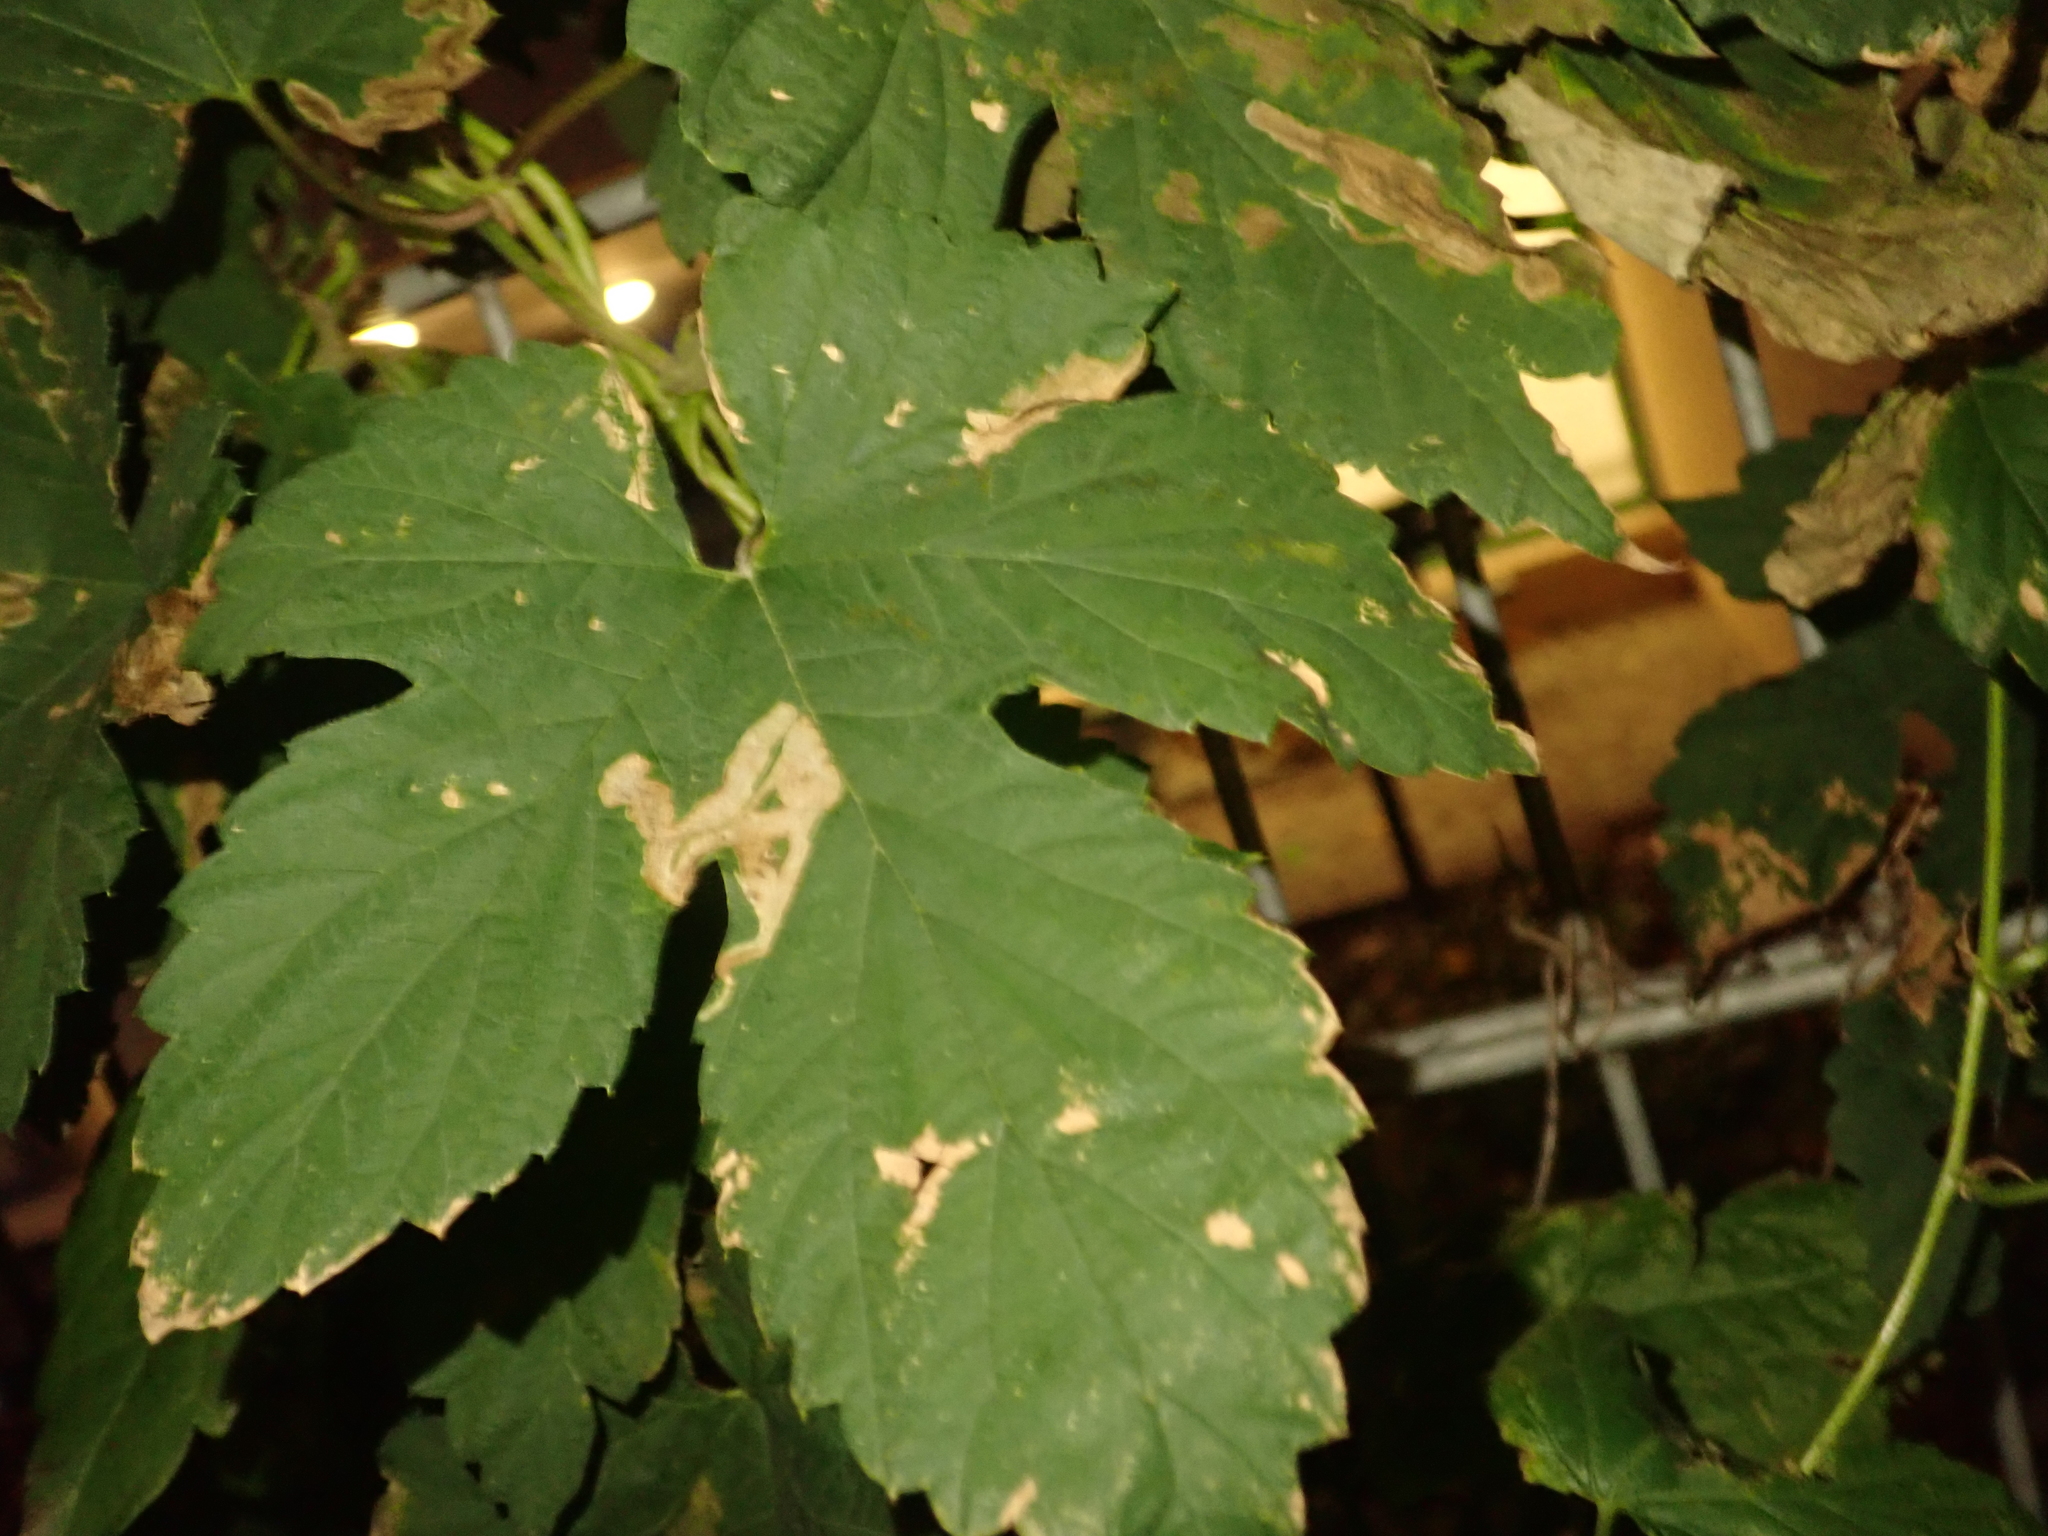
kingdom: Plantae
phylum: Tracheophyta
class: Magnoliopsida
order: Rosales
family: Cannabaceae
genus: Humulus
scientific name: Humulus lupulus
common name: Hop
